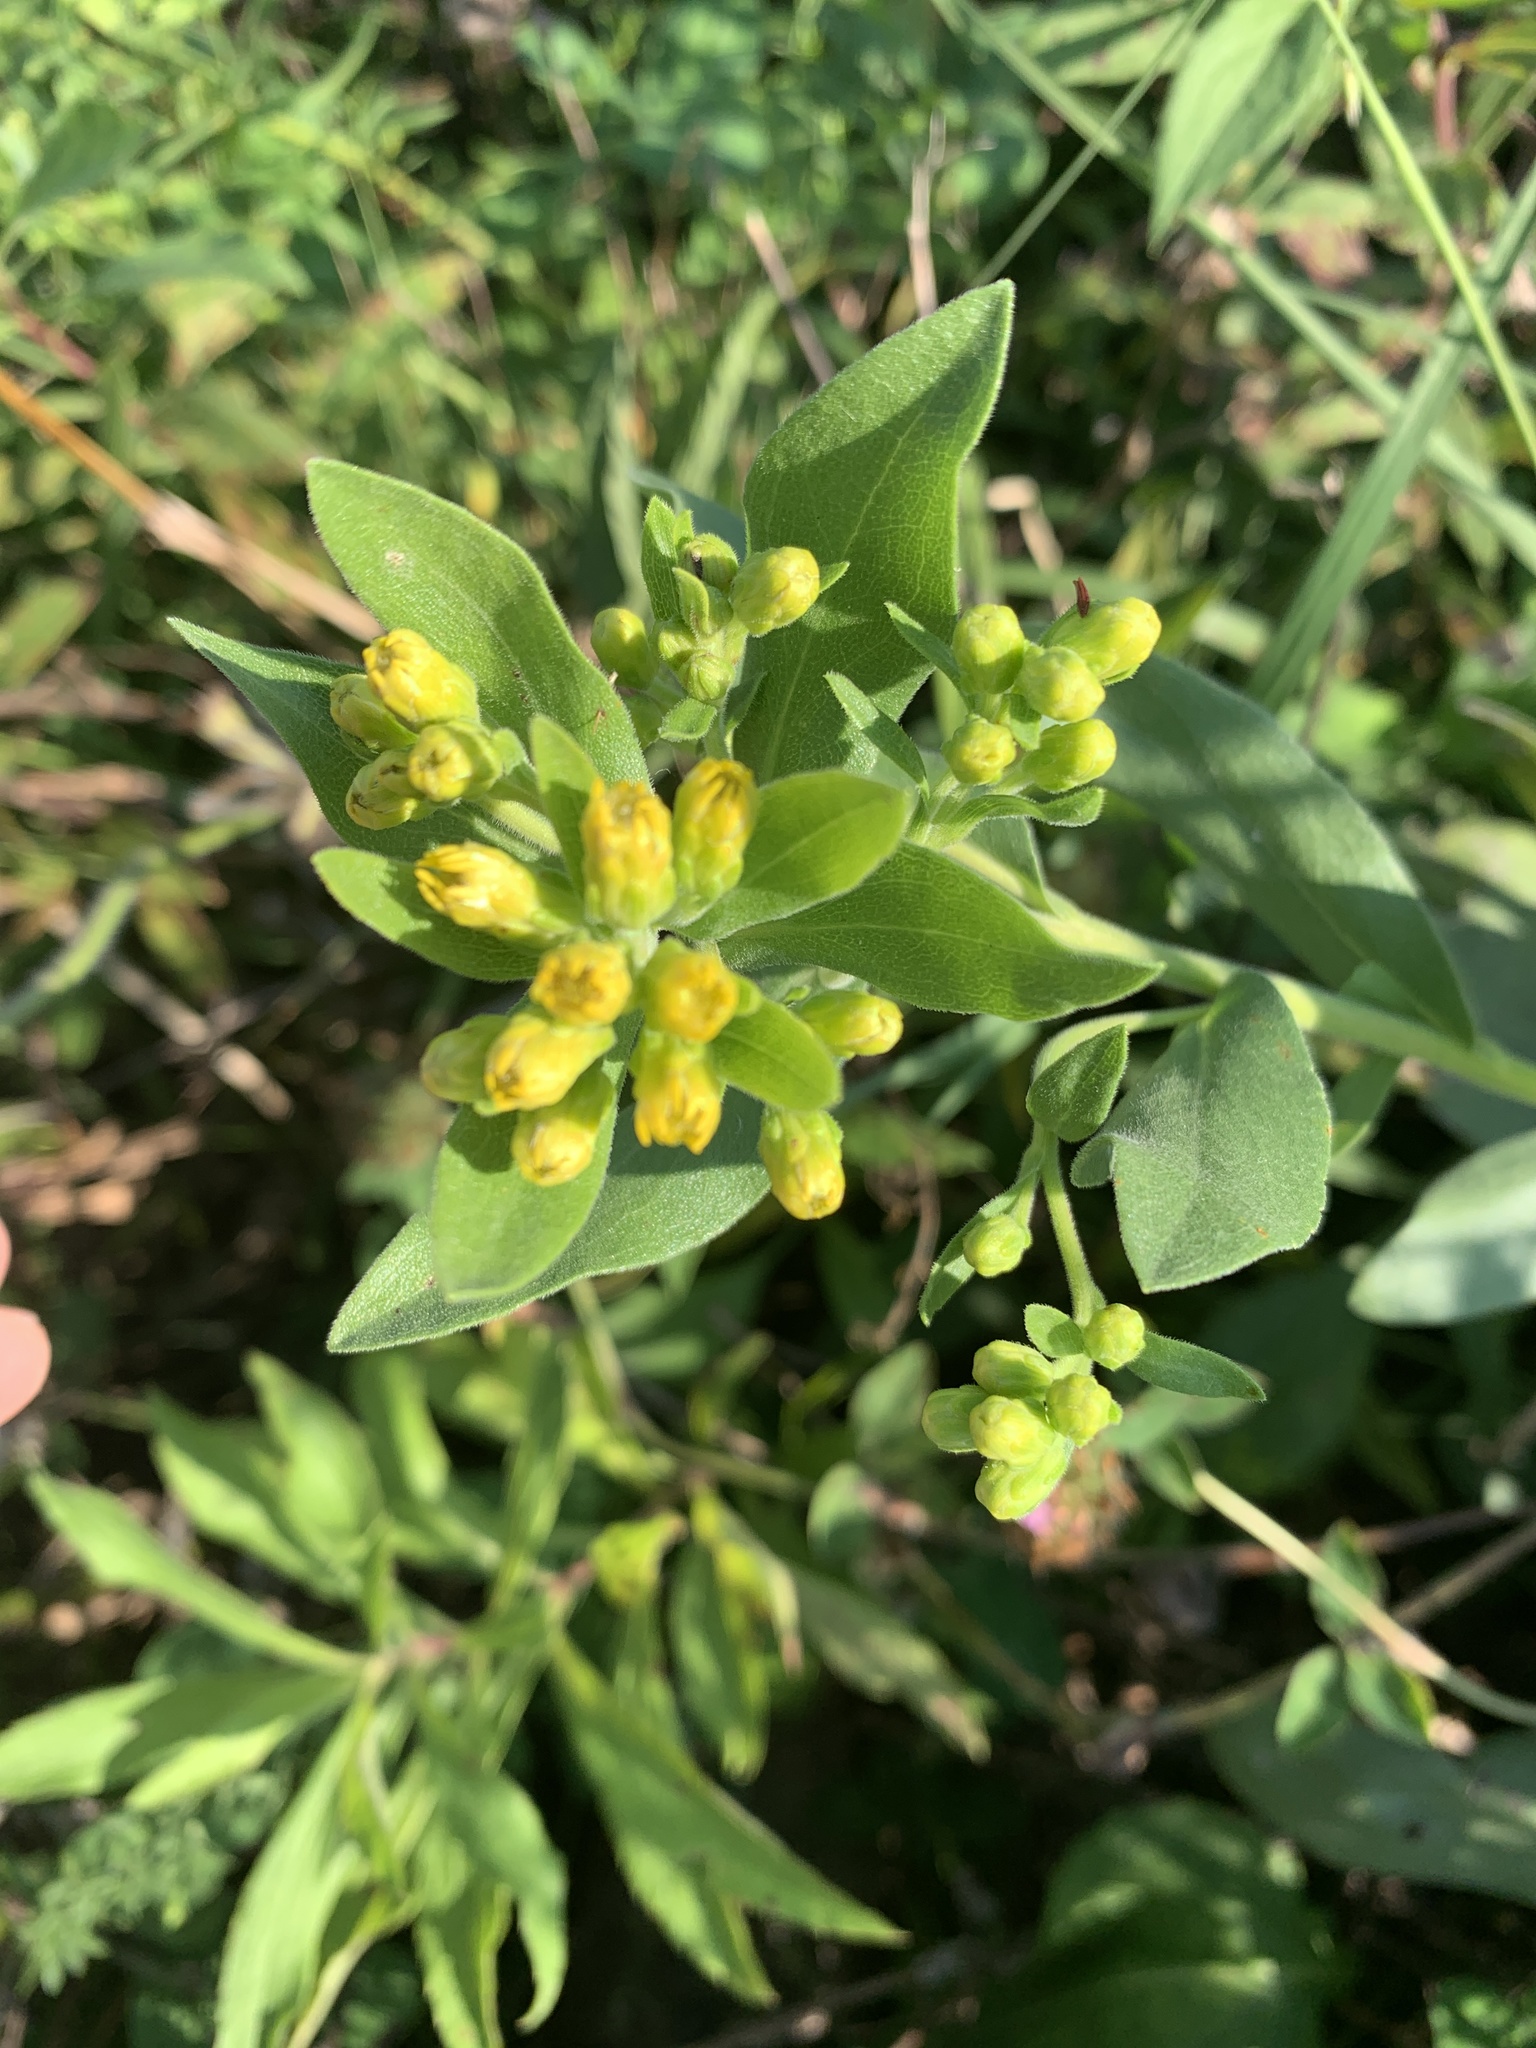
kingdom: Plantae
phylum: Tracheophyta
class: Magnoliopsida
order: Asterales
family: Asteraceae
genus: Solidago
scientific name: Solidago rigida
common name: Rigid goldenrod
